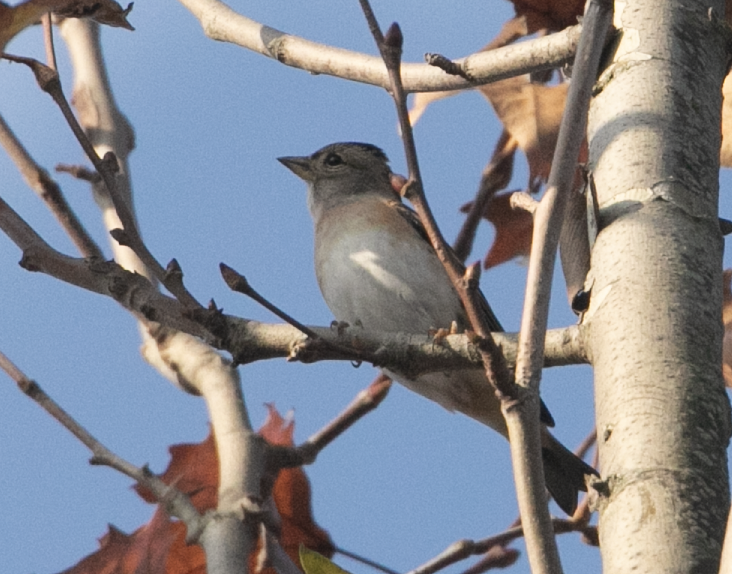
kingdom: Animalia
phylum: Chordata
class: Aves
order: Passeriformes
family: Fringillidae
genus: Fringilla
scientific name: Fringilla montifringilla
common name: Brambling
